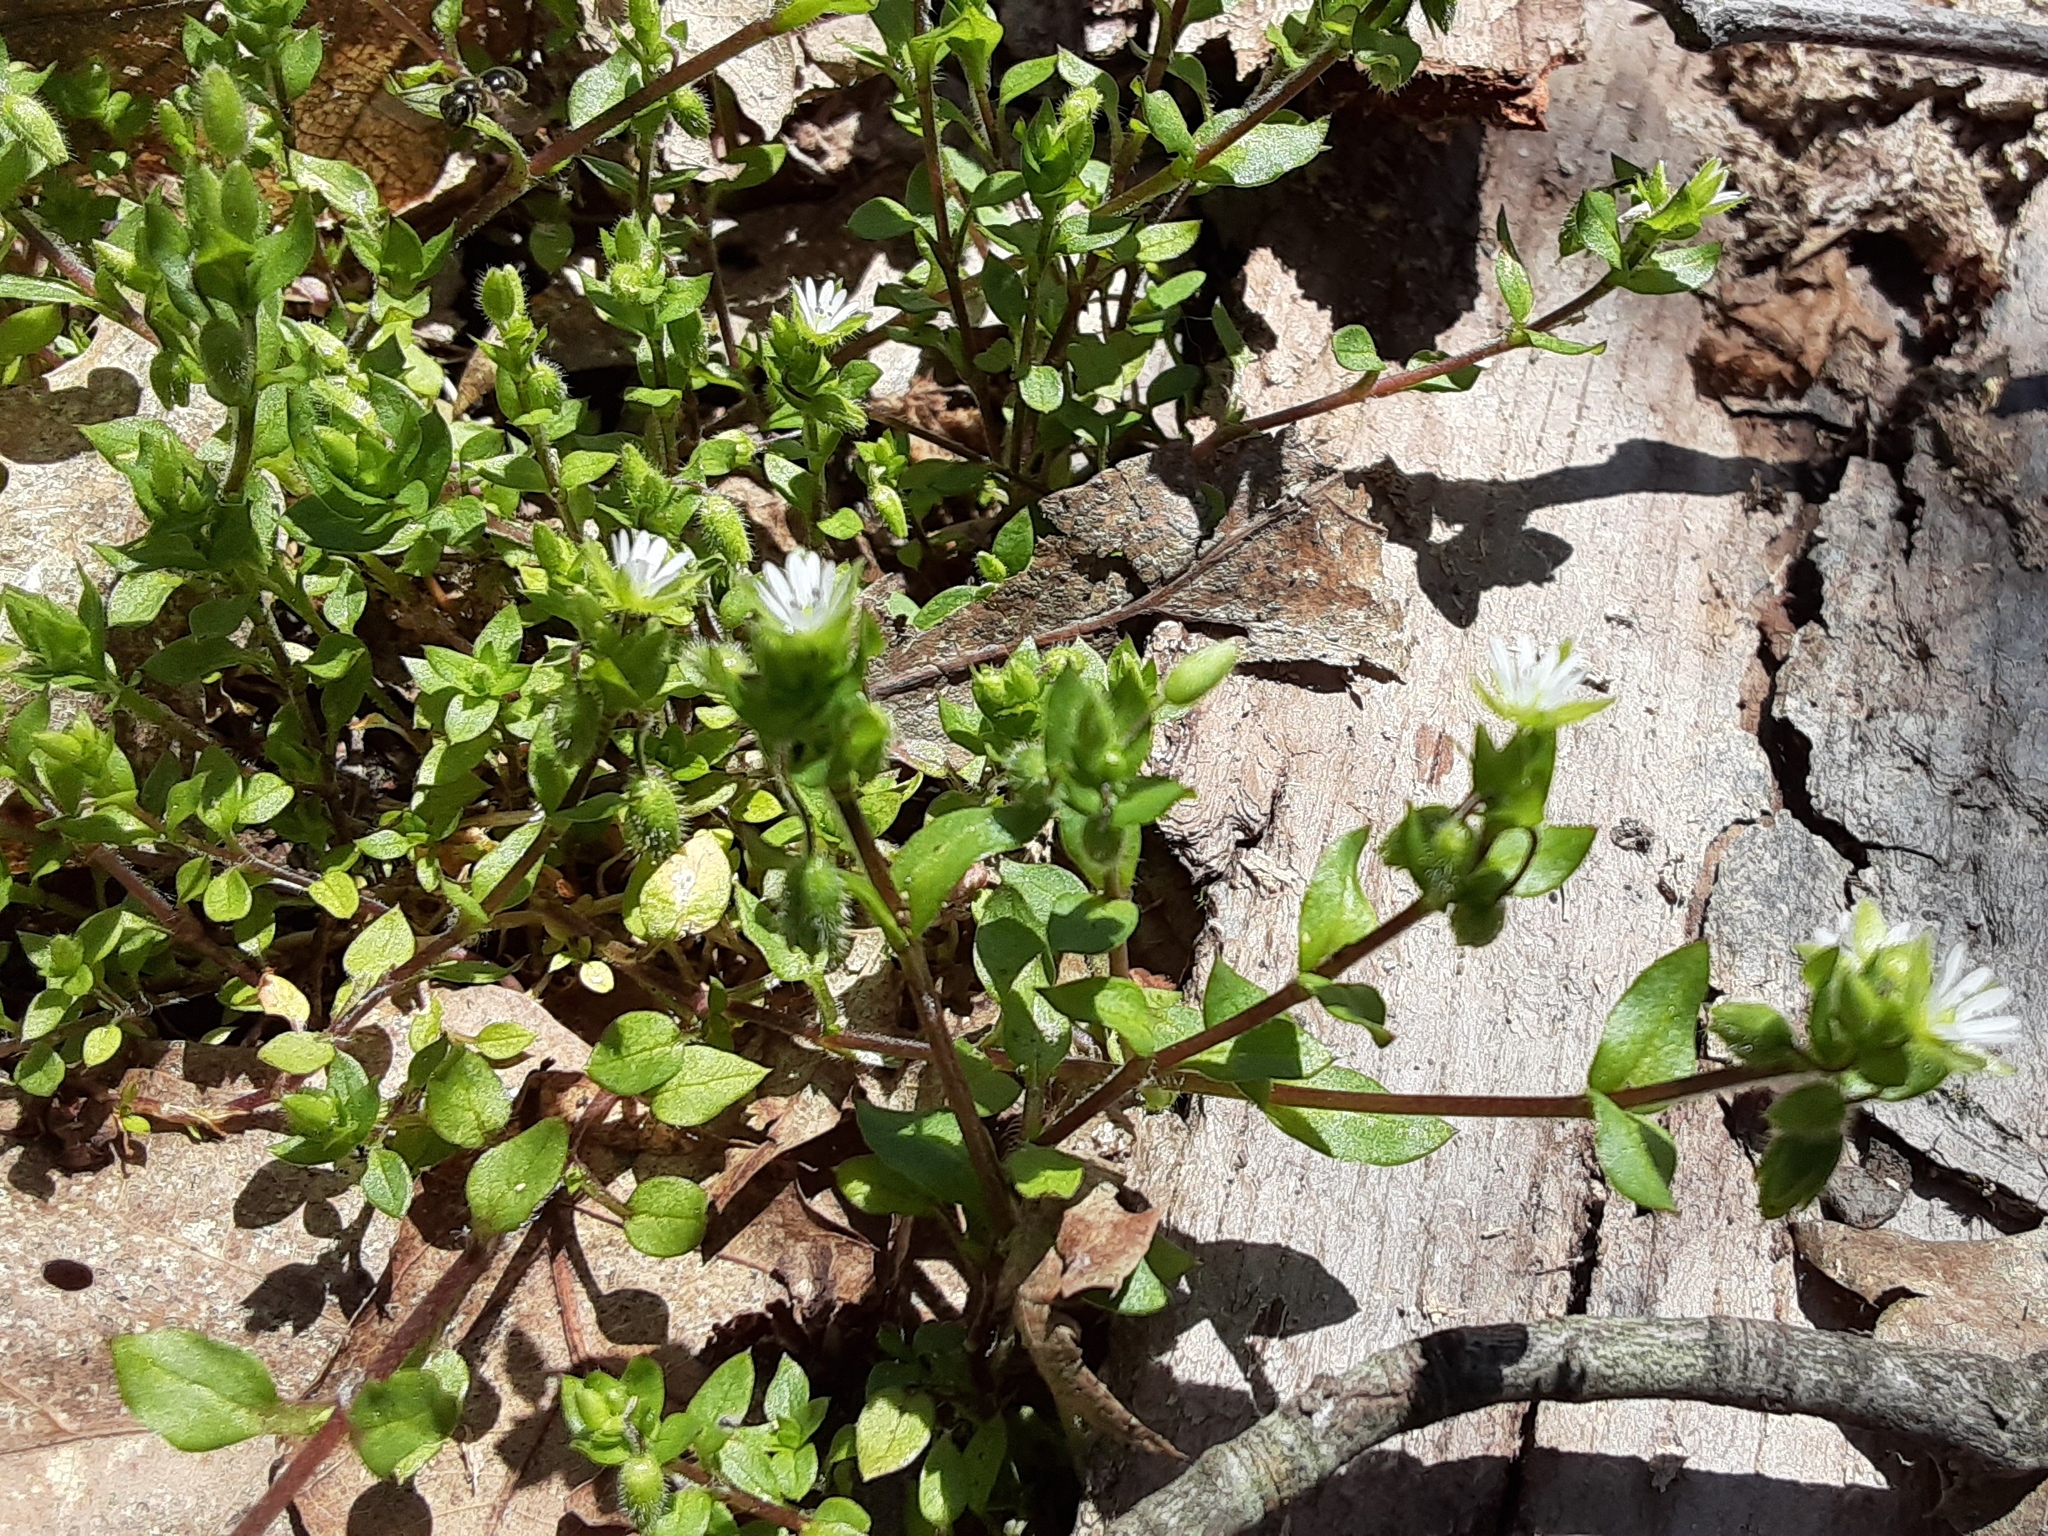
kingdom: Plantae
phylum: Tracheophyta
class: Magnoliopsida
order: Caryophyllales
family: Caryophyllaceae
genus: Stellaria
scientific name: Stellaria media
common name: Common chickweed
